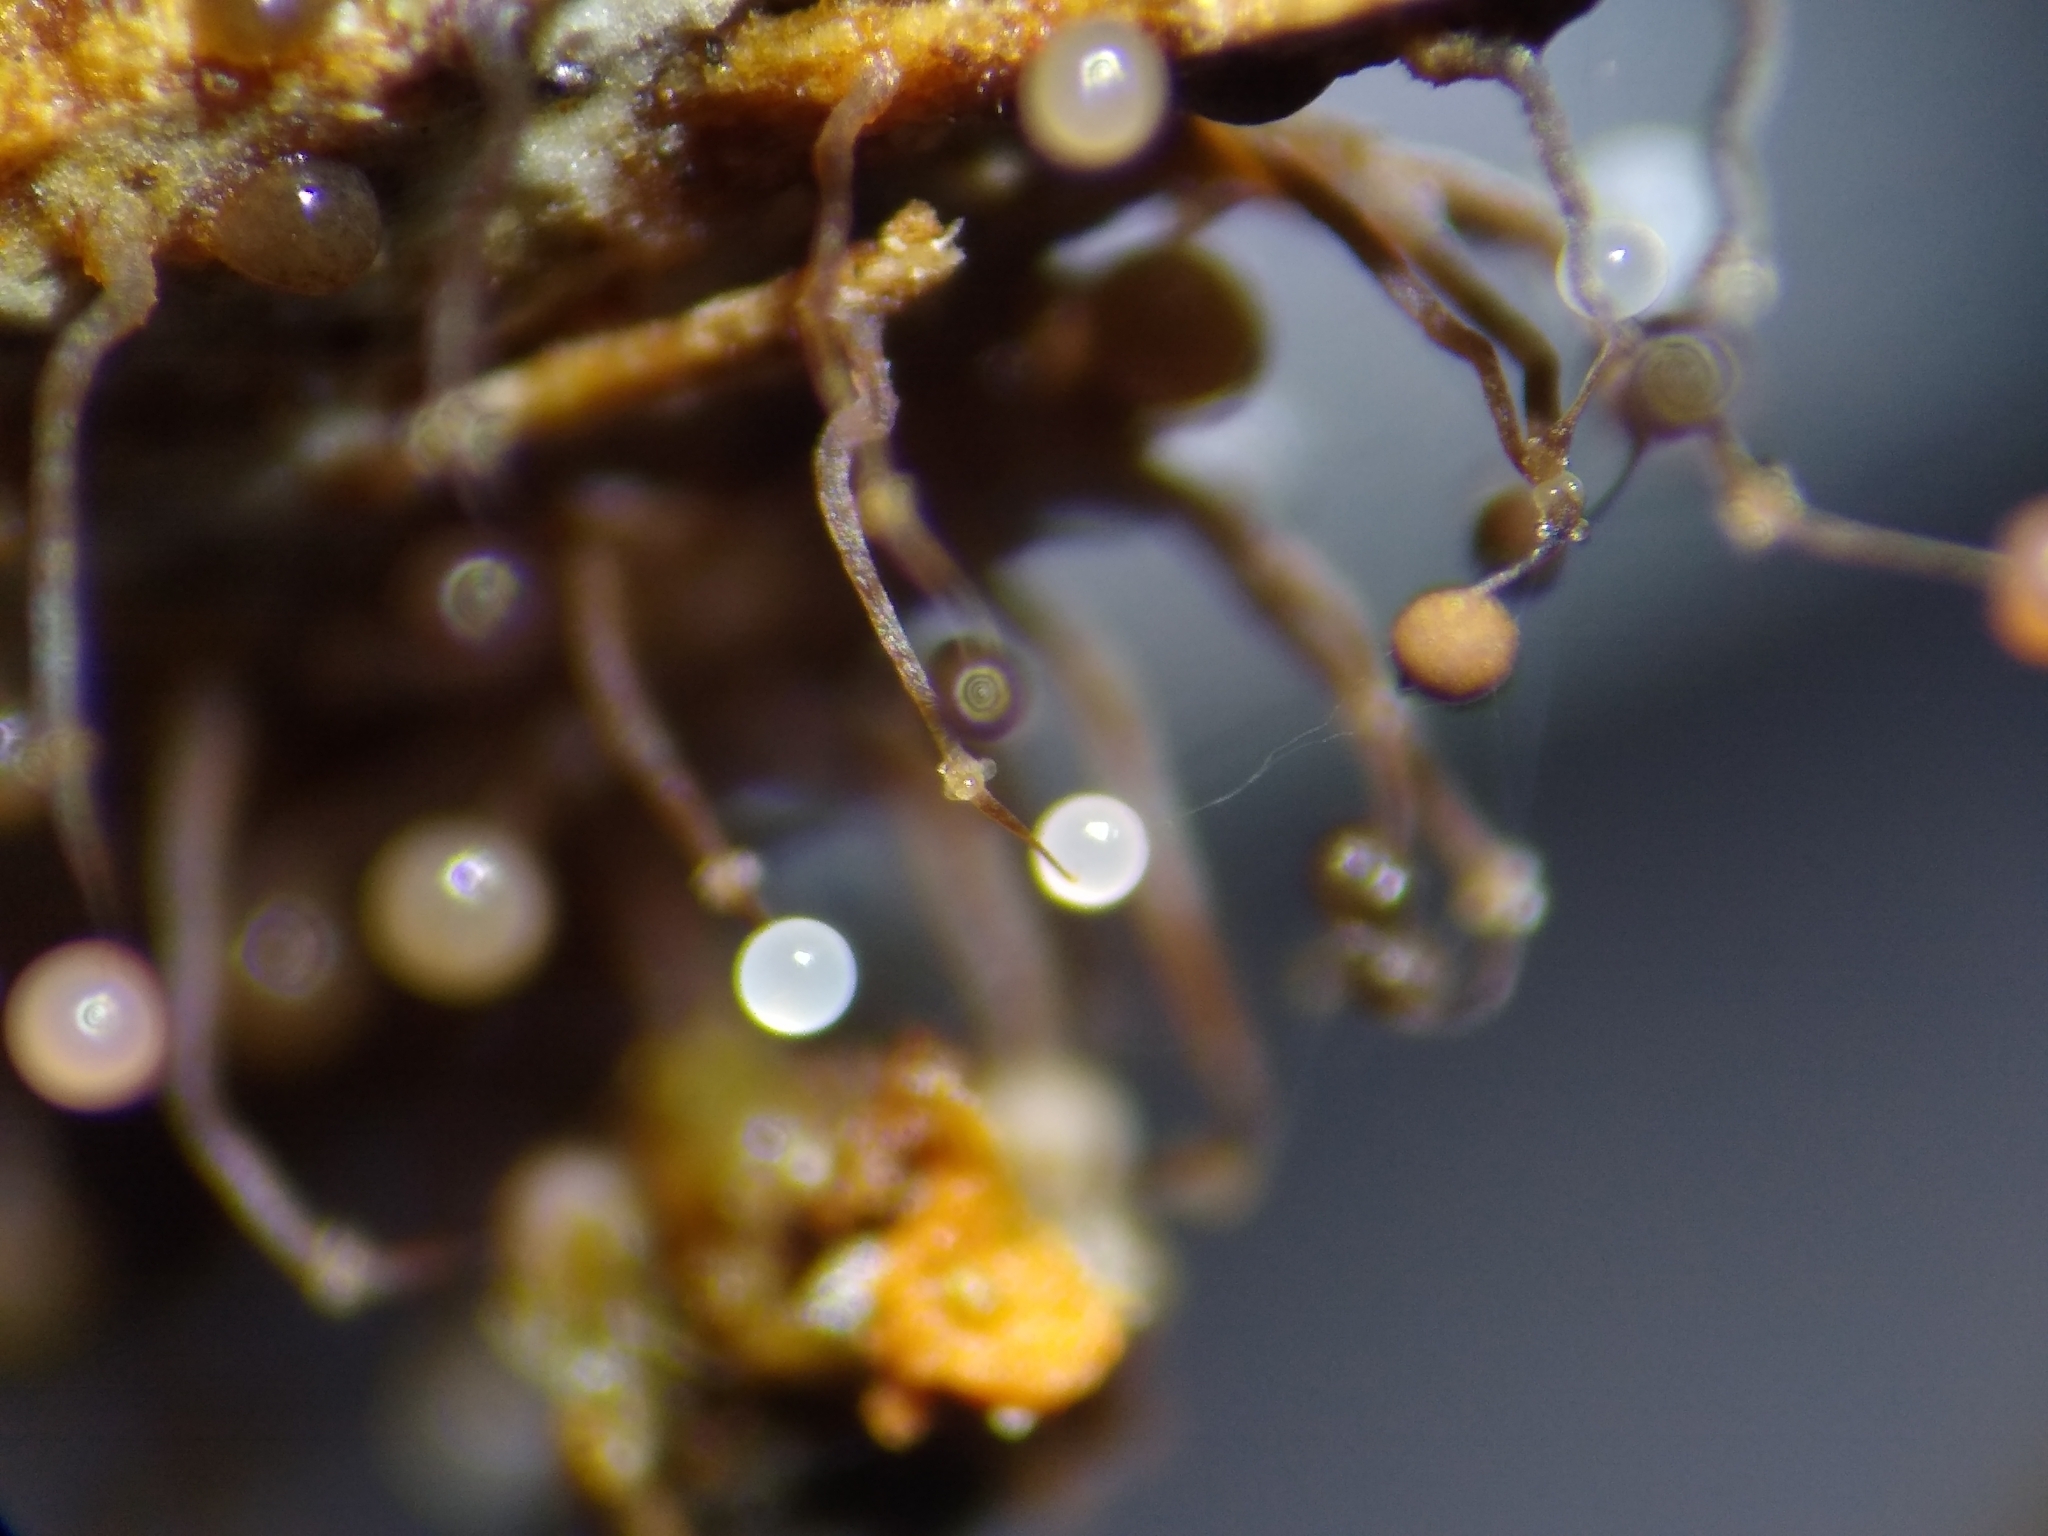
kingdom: Protozoa
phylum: Mycetozoa
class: Myxomycetes
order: Echinosteliales
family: Clastodermataceae
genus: Clastoderma
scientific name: Clastoderma debaryanum
